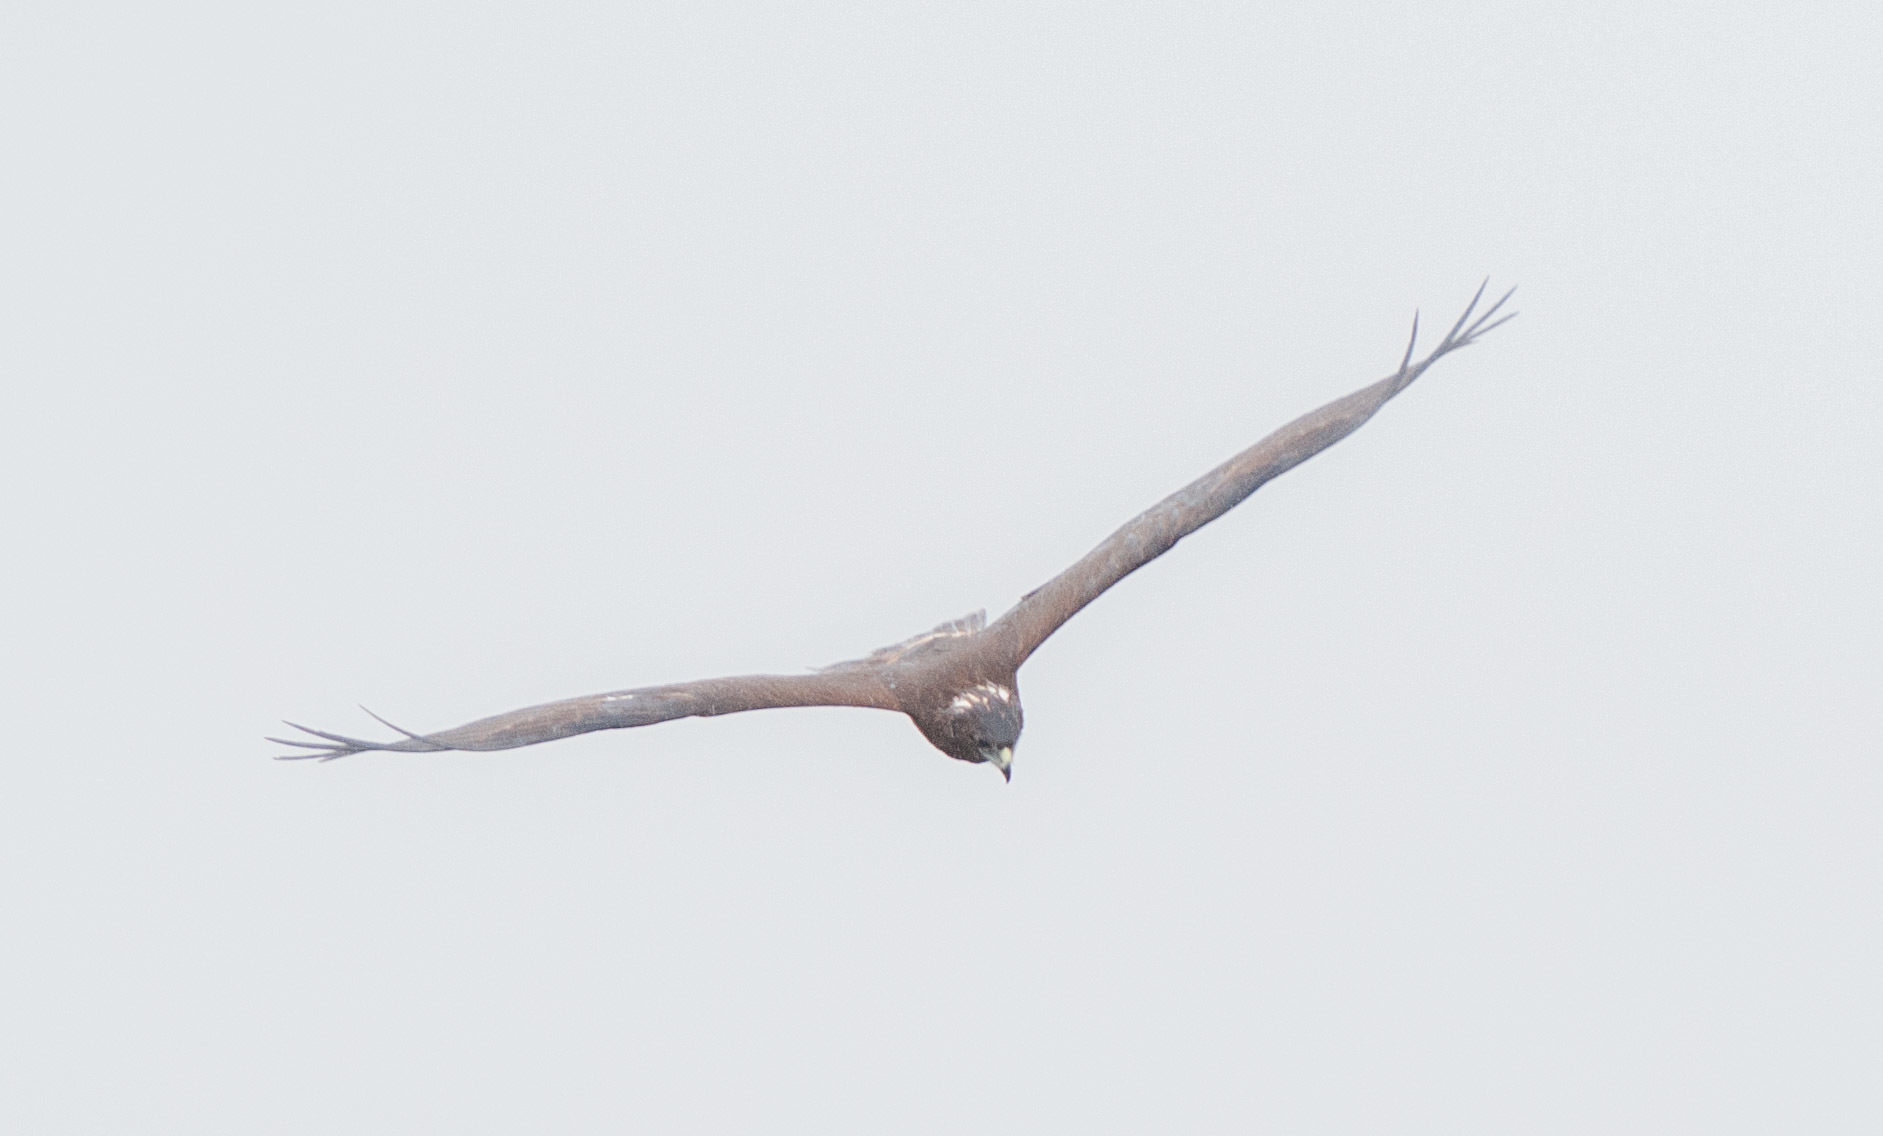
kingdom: Animalia
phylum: Chordata
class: Aves
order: Accipitriformes
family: Accipitridae
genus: Circus
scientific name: Circus approximans
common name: Swamp harrier
